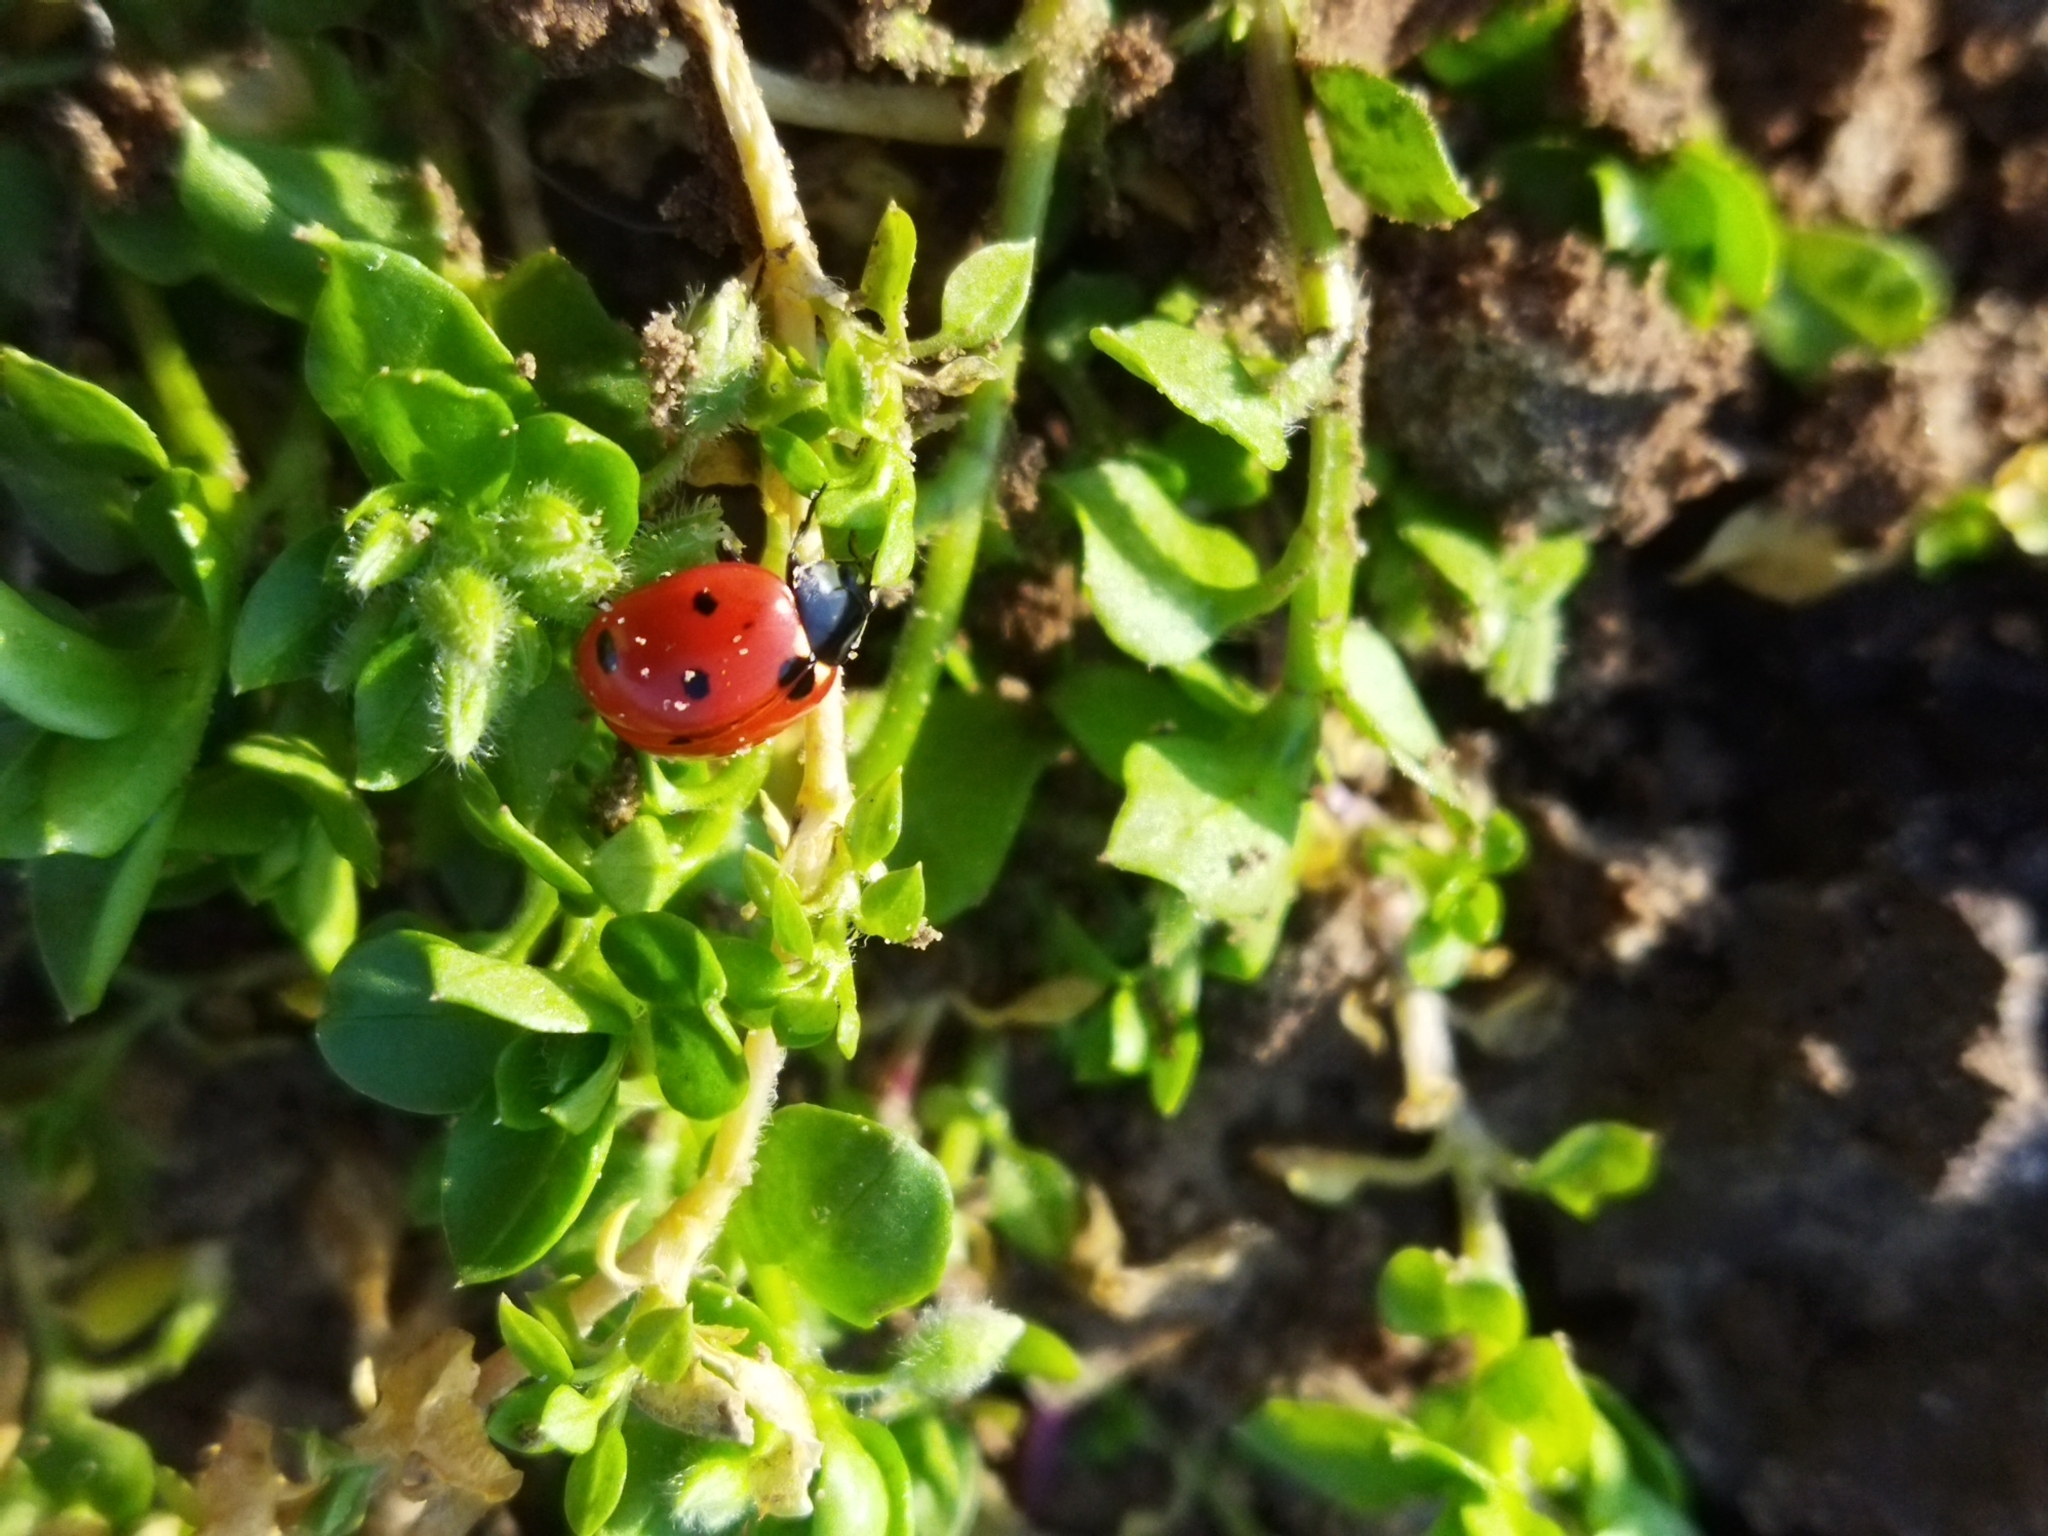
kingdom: Animalia
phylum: Arthropoda
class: Insecta
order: Coleoptera
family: Coccinellidae
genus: Coccinella
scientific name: Coccinella septempunctata
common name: Sevenspotted lady beetle
